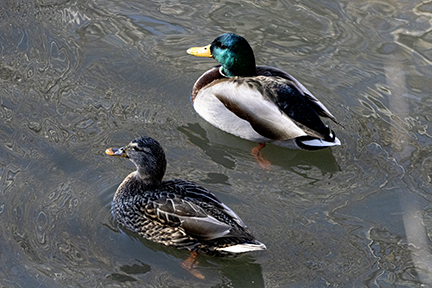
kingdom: Animalia
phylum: Chordata
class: Aves
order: Anseriformes
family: Anatidae
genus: Anas
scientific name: Anas platyrhynchos
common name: Mallard
